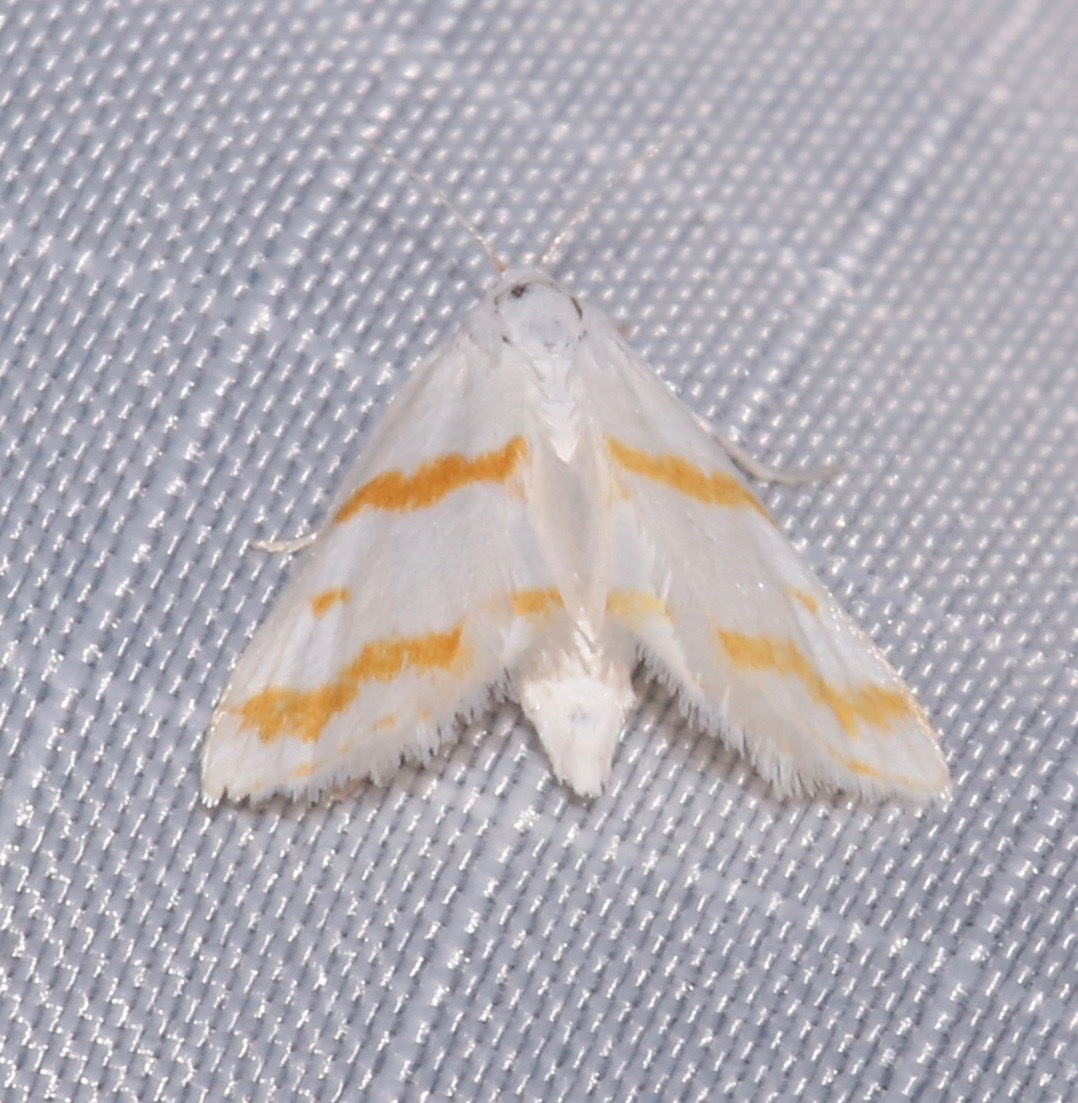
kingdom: Animalia
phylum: Arthropoda
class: Insecta
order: Lepidoptera
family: Crambidae
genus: Patissa
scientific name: Patissa xantholeucalis
